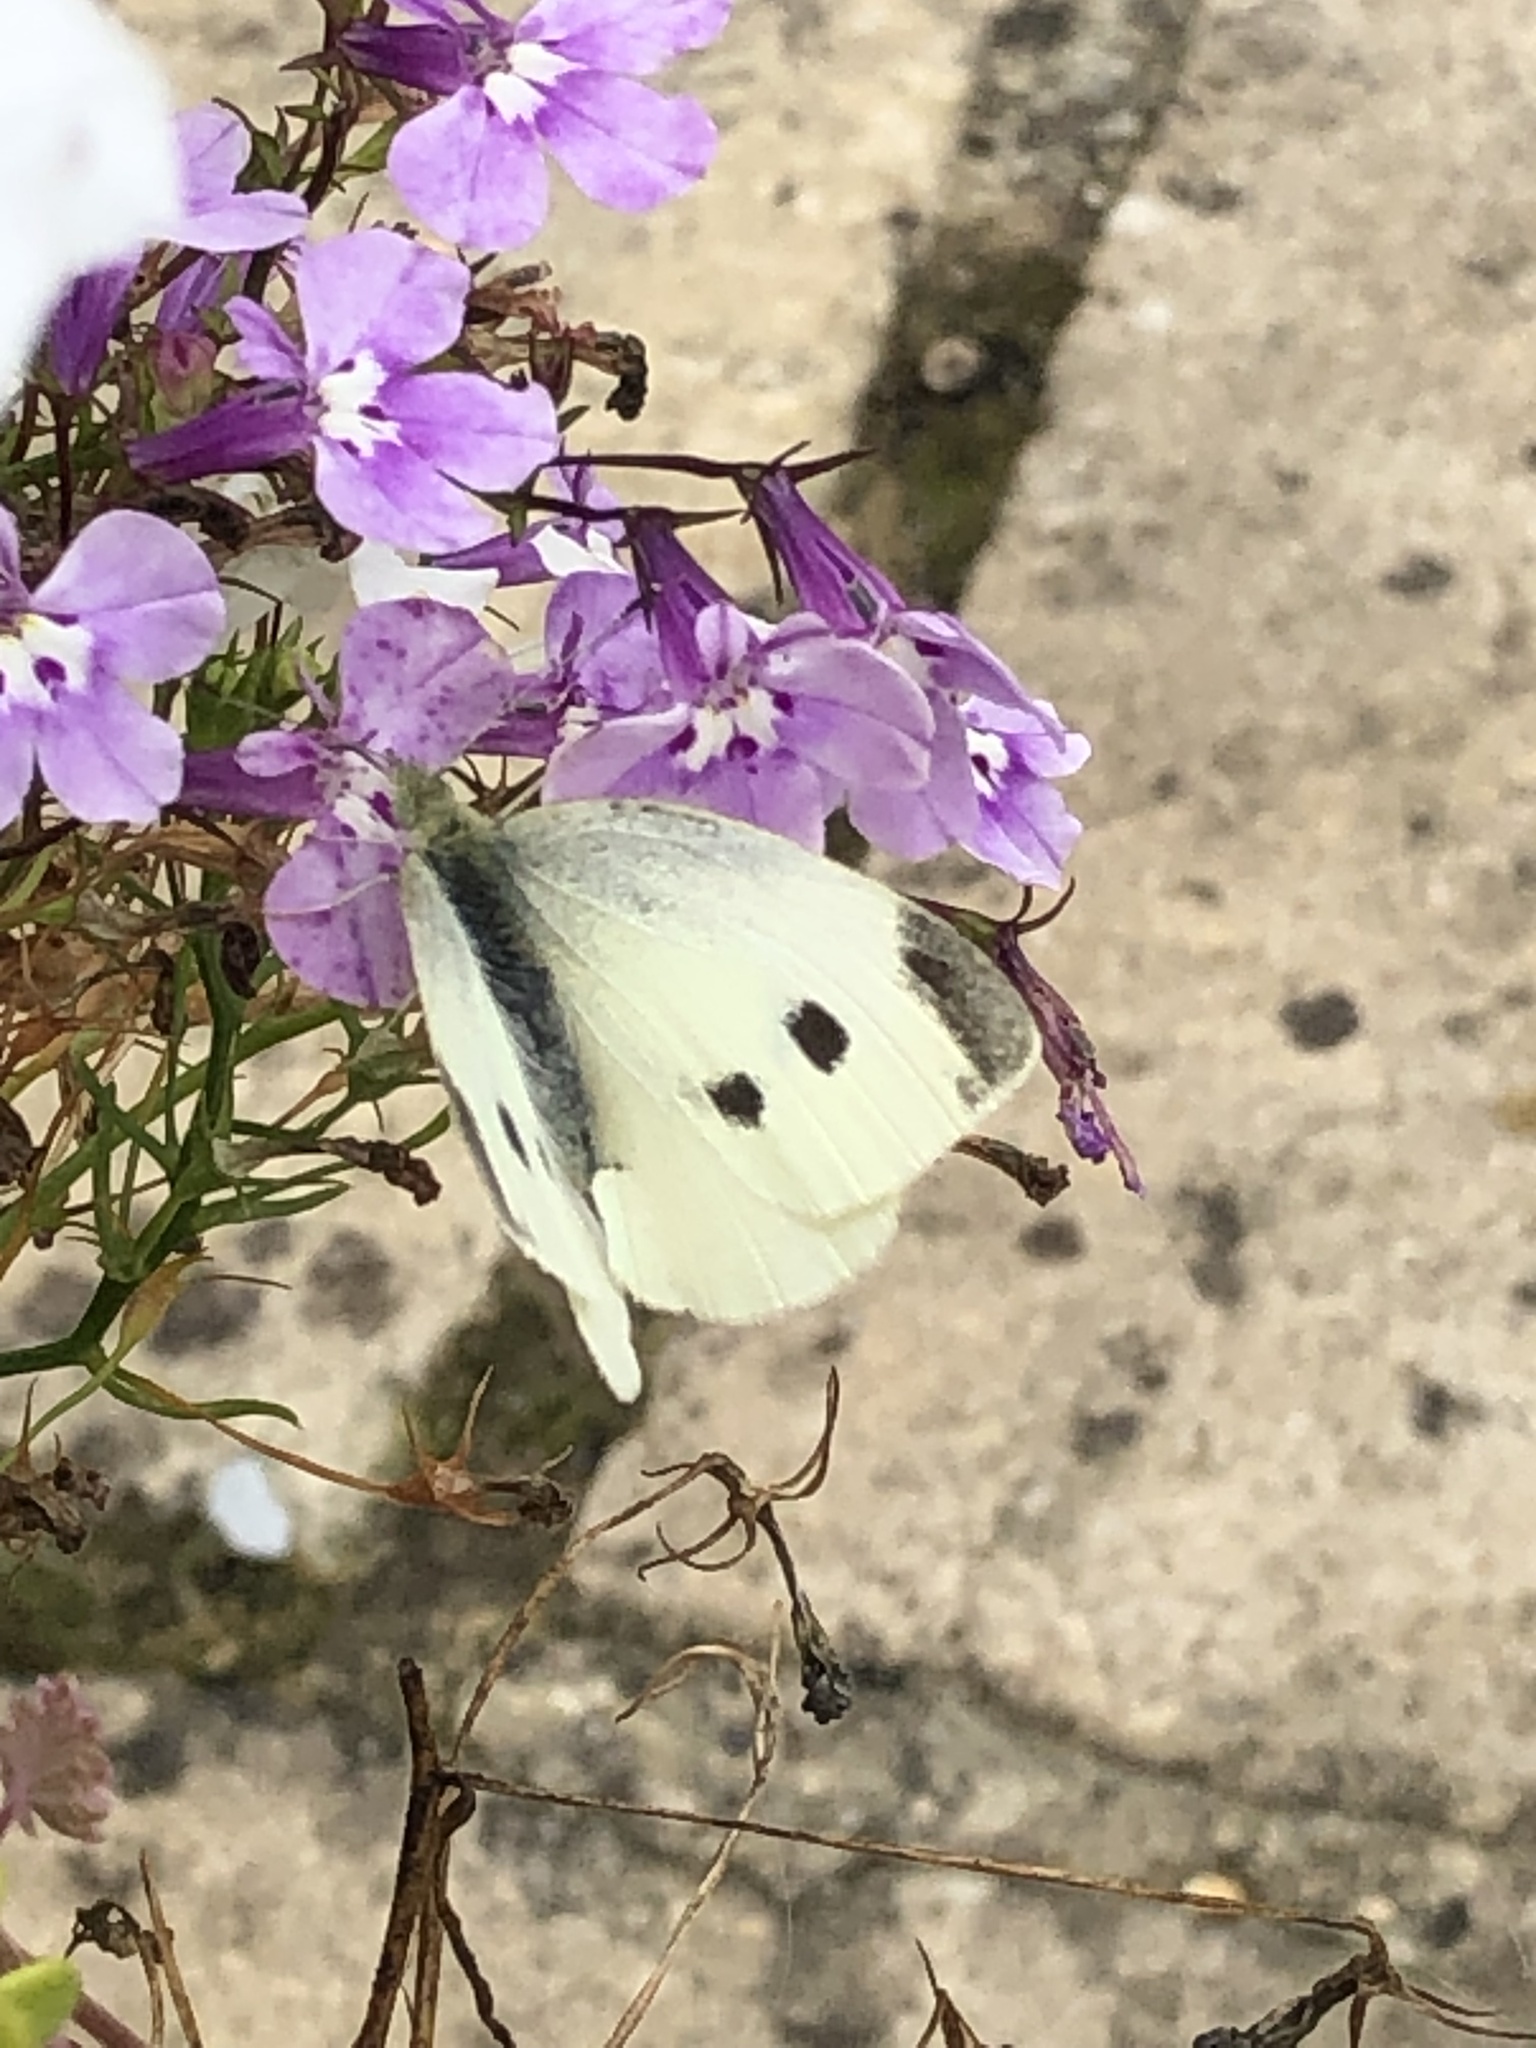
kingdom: Animalia
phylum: Arthropoda
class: Insecta
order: Lepidoptera
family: Pieridae
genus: Pieris
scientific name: Pieris rapae
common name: Small white
